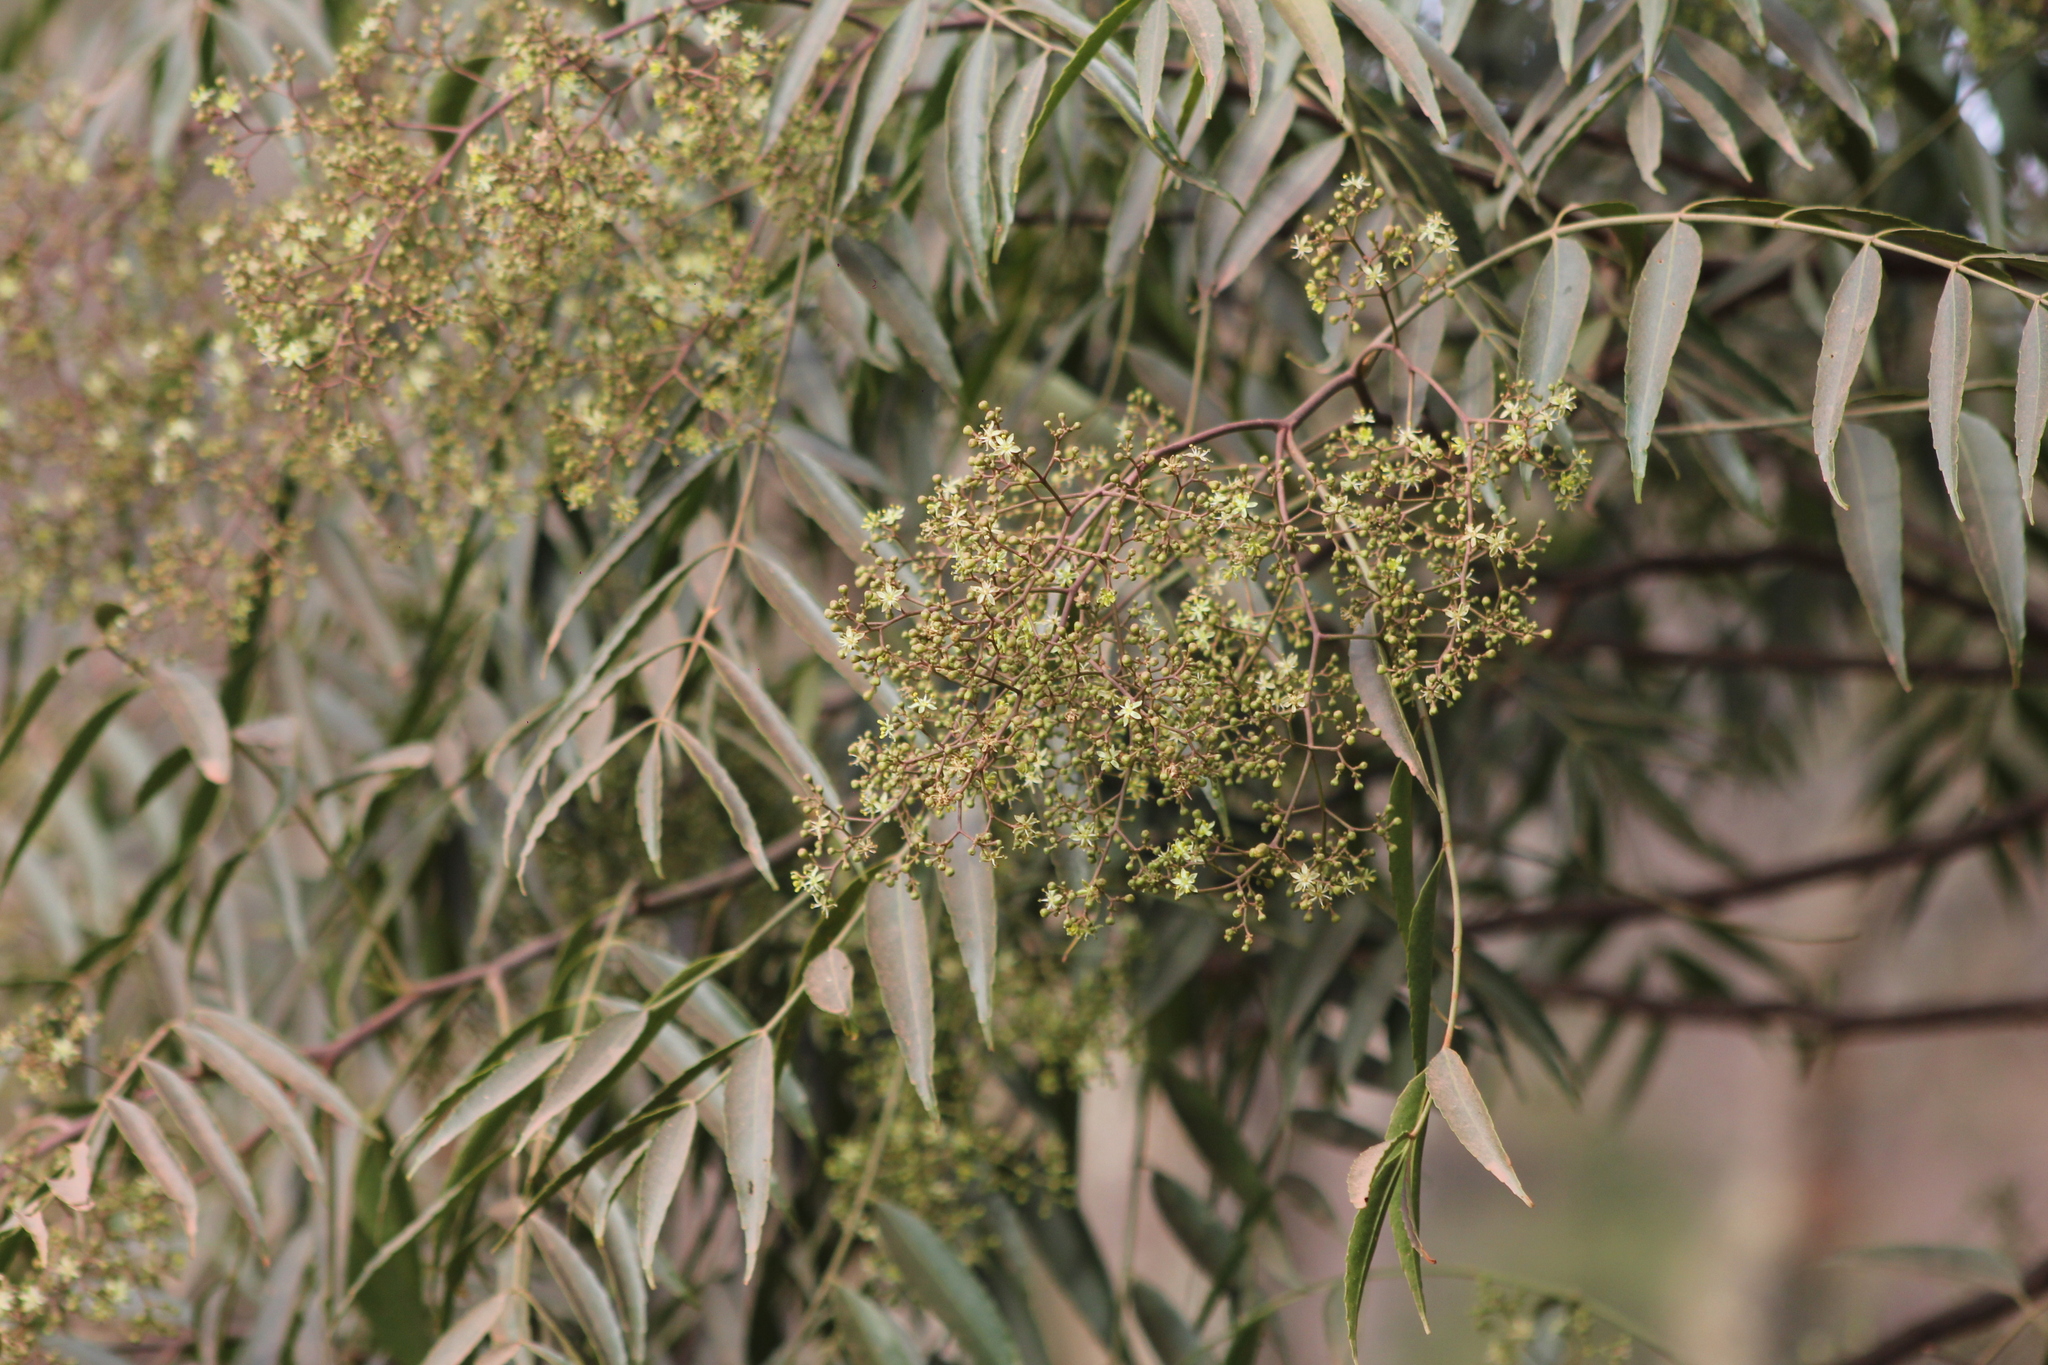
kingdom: Plantae
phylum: Tracheophyta
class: Magnoliopsida
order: Sapindales
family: Rutaceae
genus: Zanthoxylum
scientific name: Zanthoxylum coco
